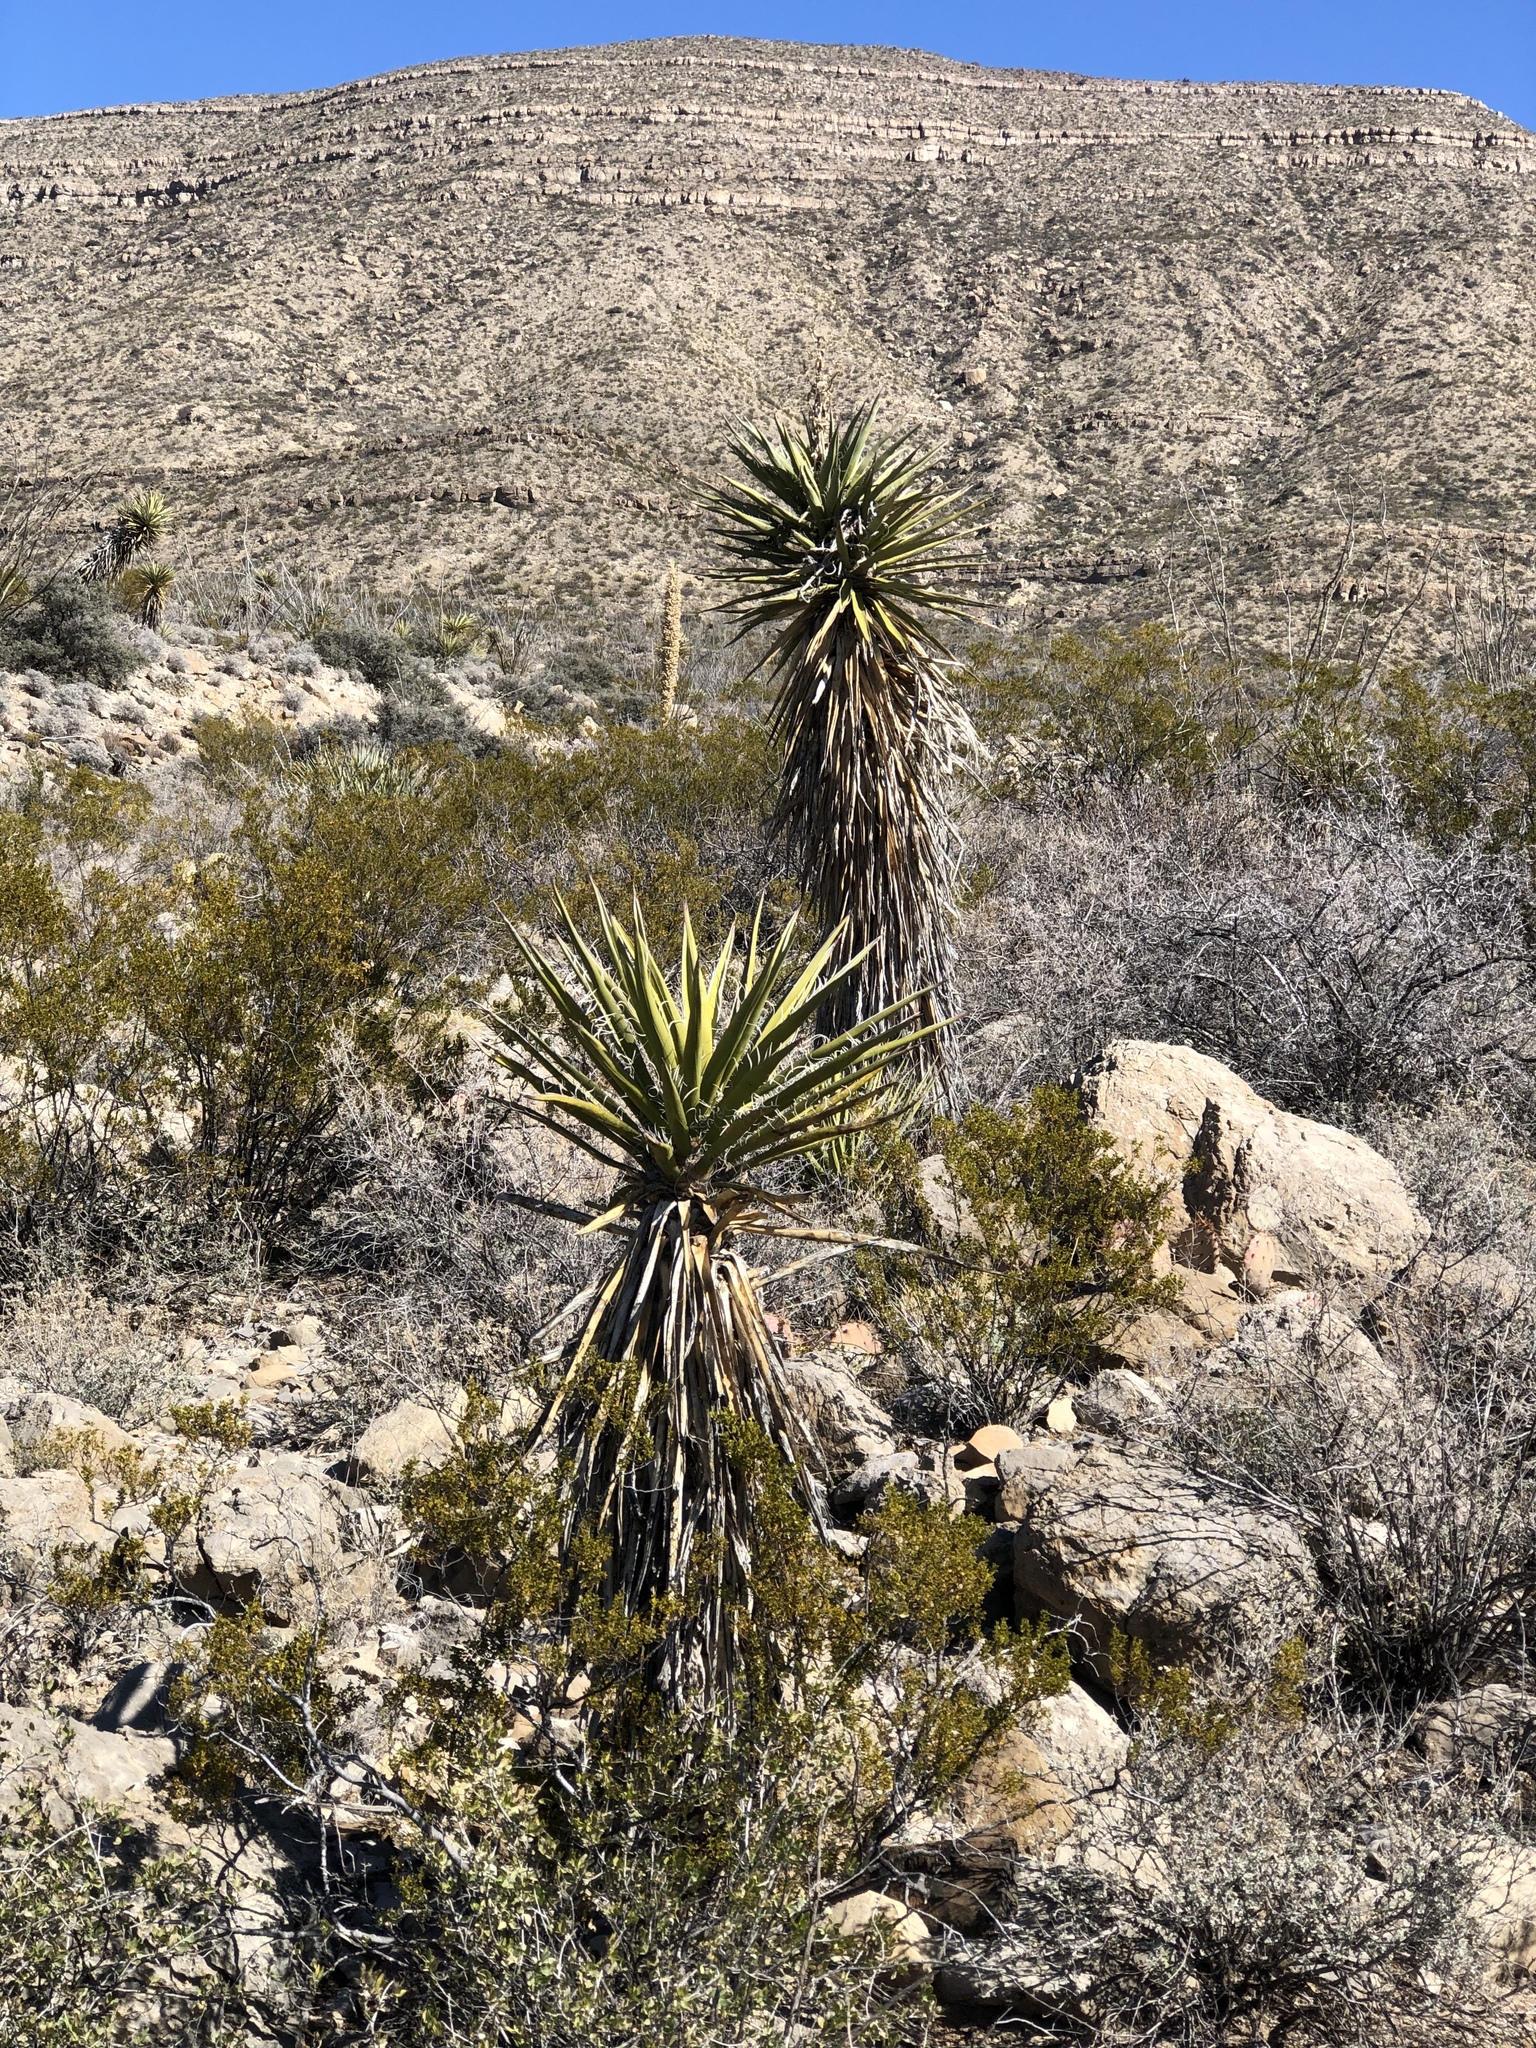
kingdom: Plantae
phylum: Tracheophyta
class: Liliopsida
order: Asparagales
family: Asparagaceae
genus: Yucca
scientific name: Yucca treculiana
